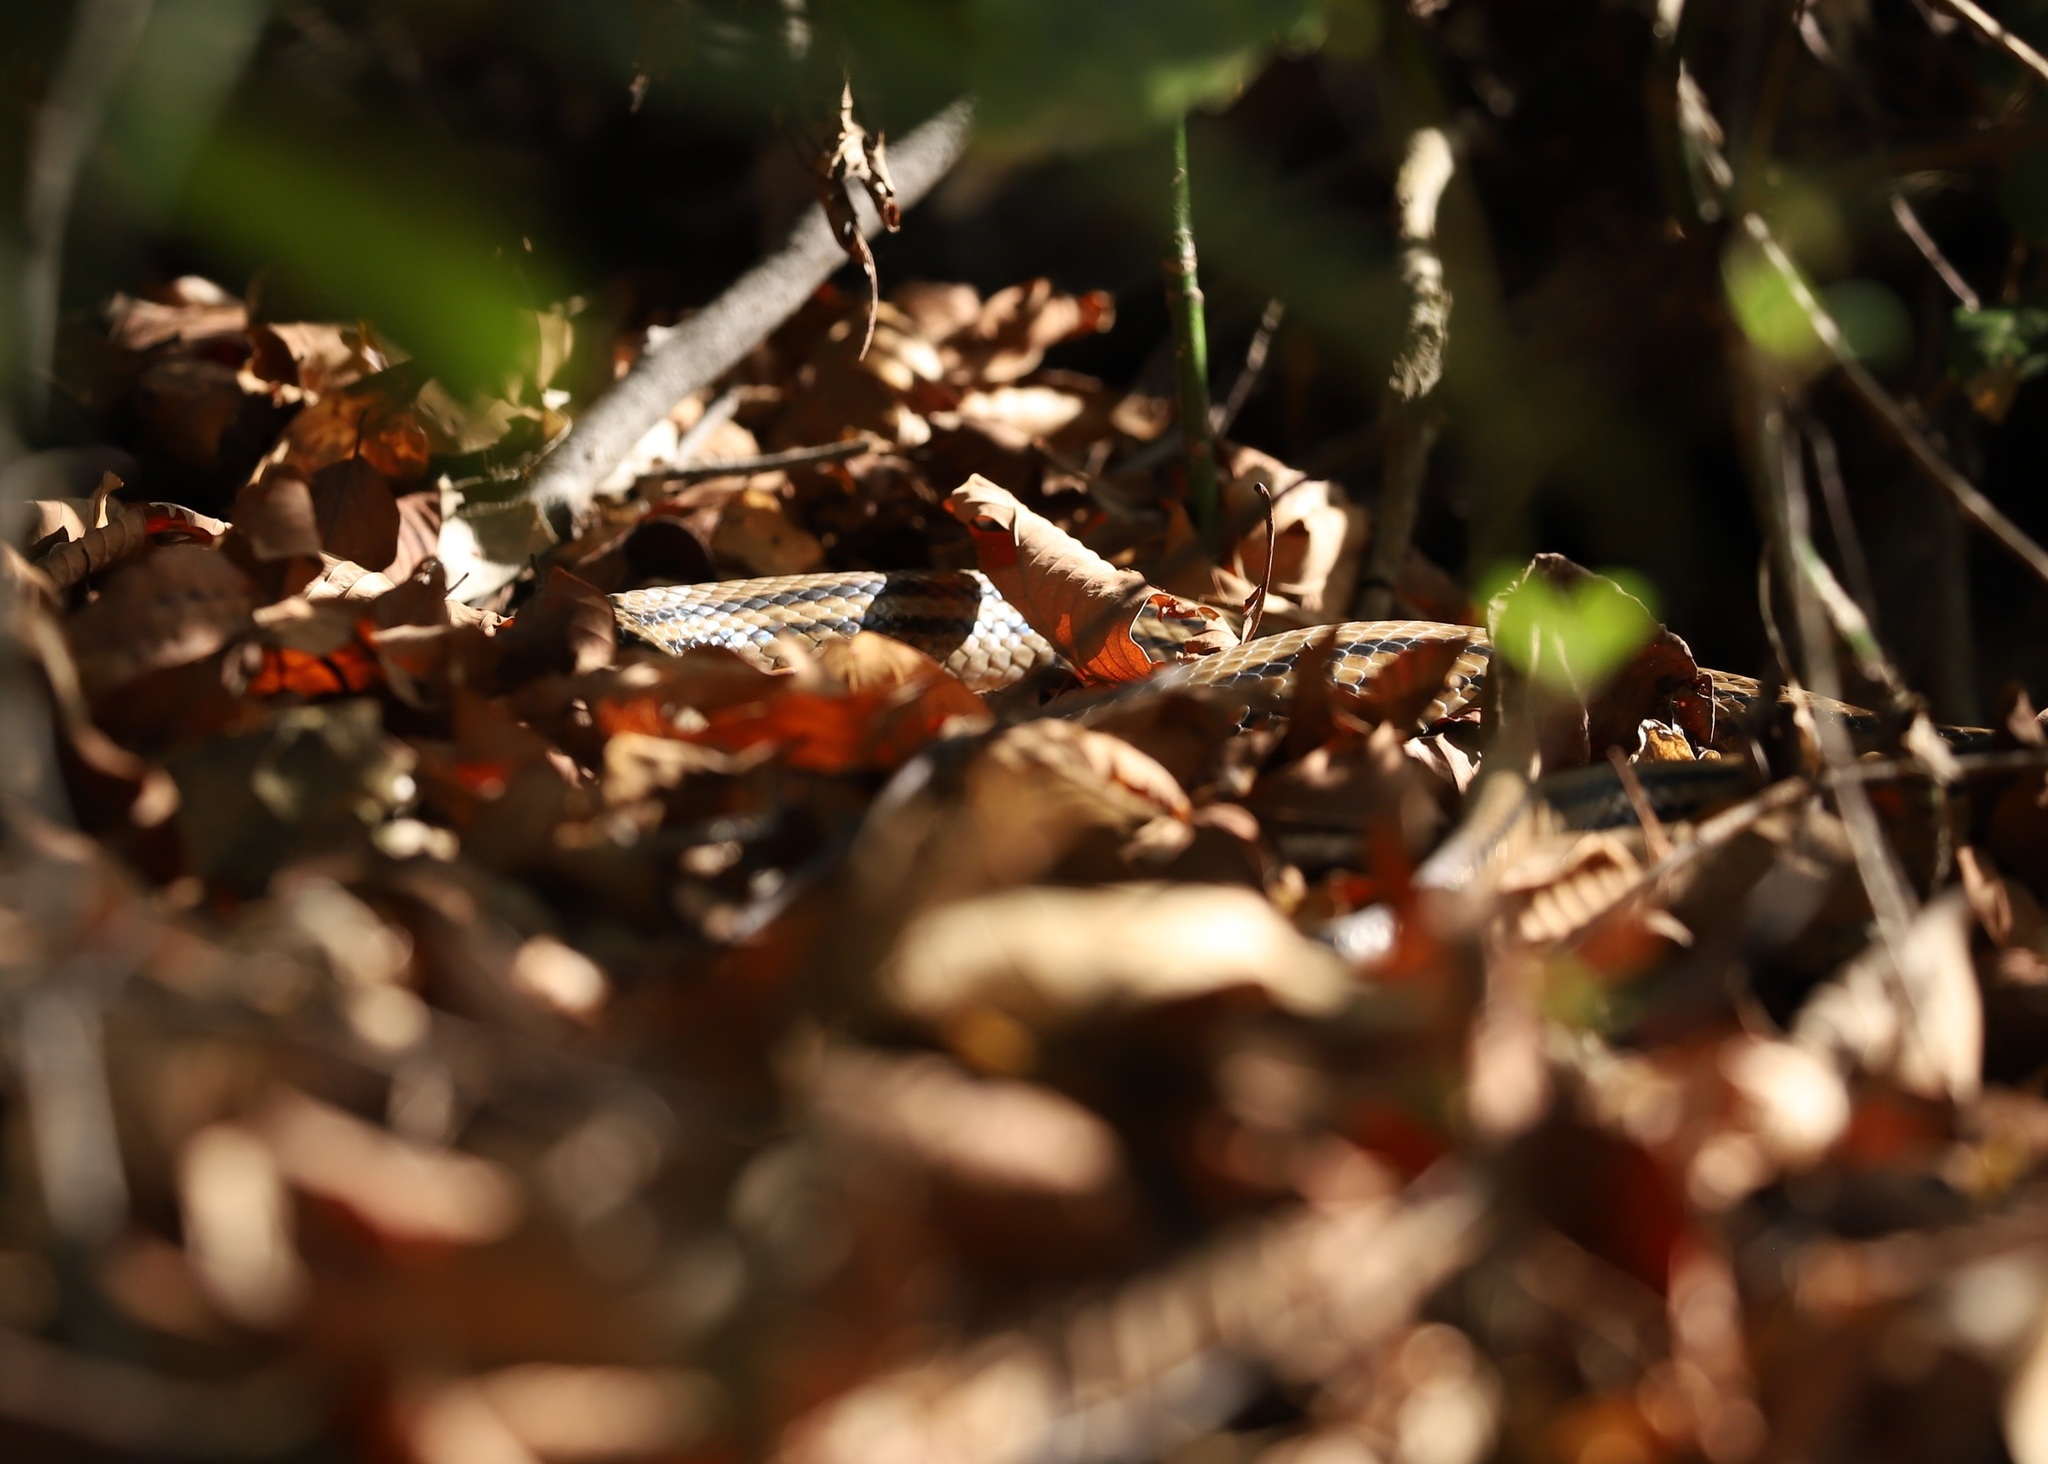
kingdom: Animalia
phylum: Chordata
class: Squamata
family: Colubridae
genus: Elaphe
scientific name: Elaphe quadrivirgata
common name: Japanese four-lined ratsnake
